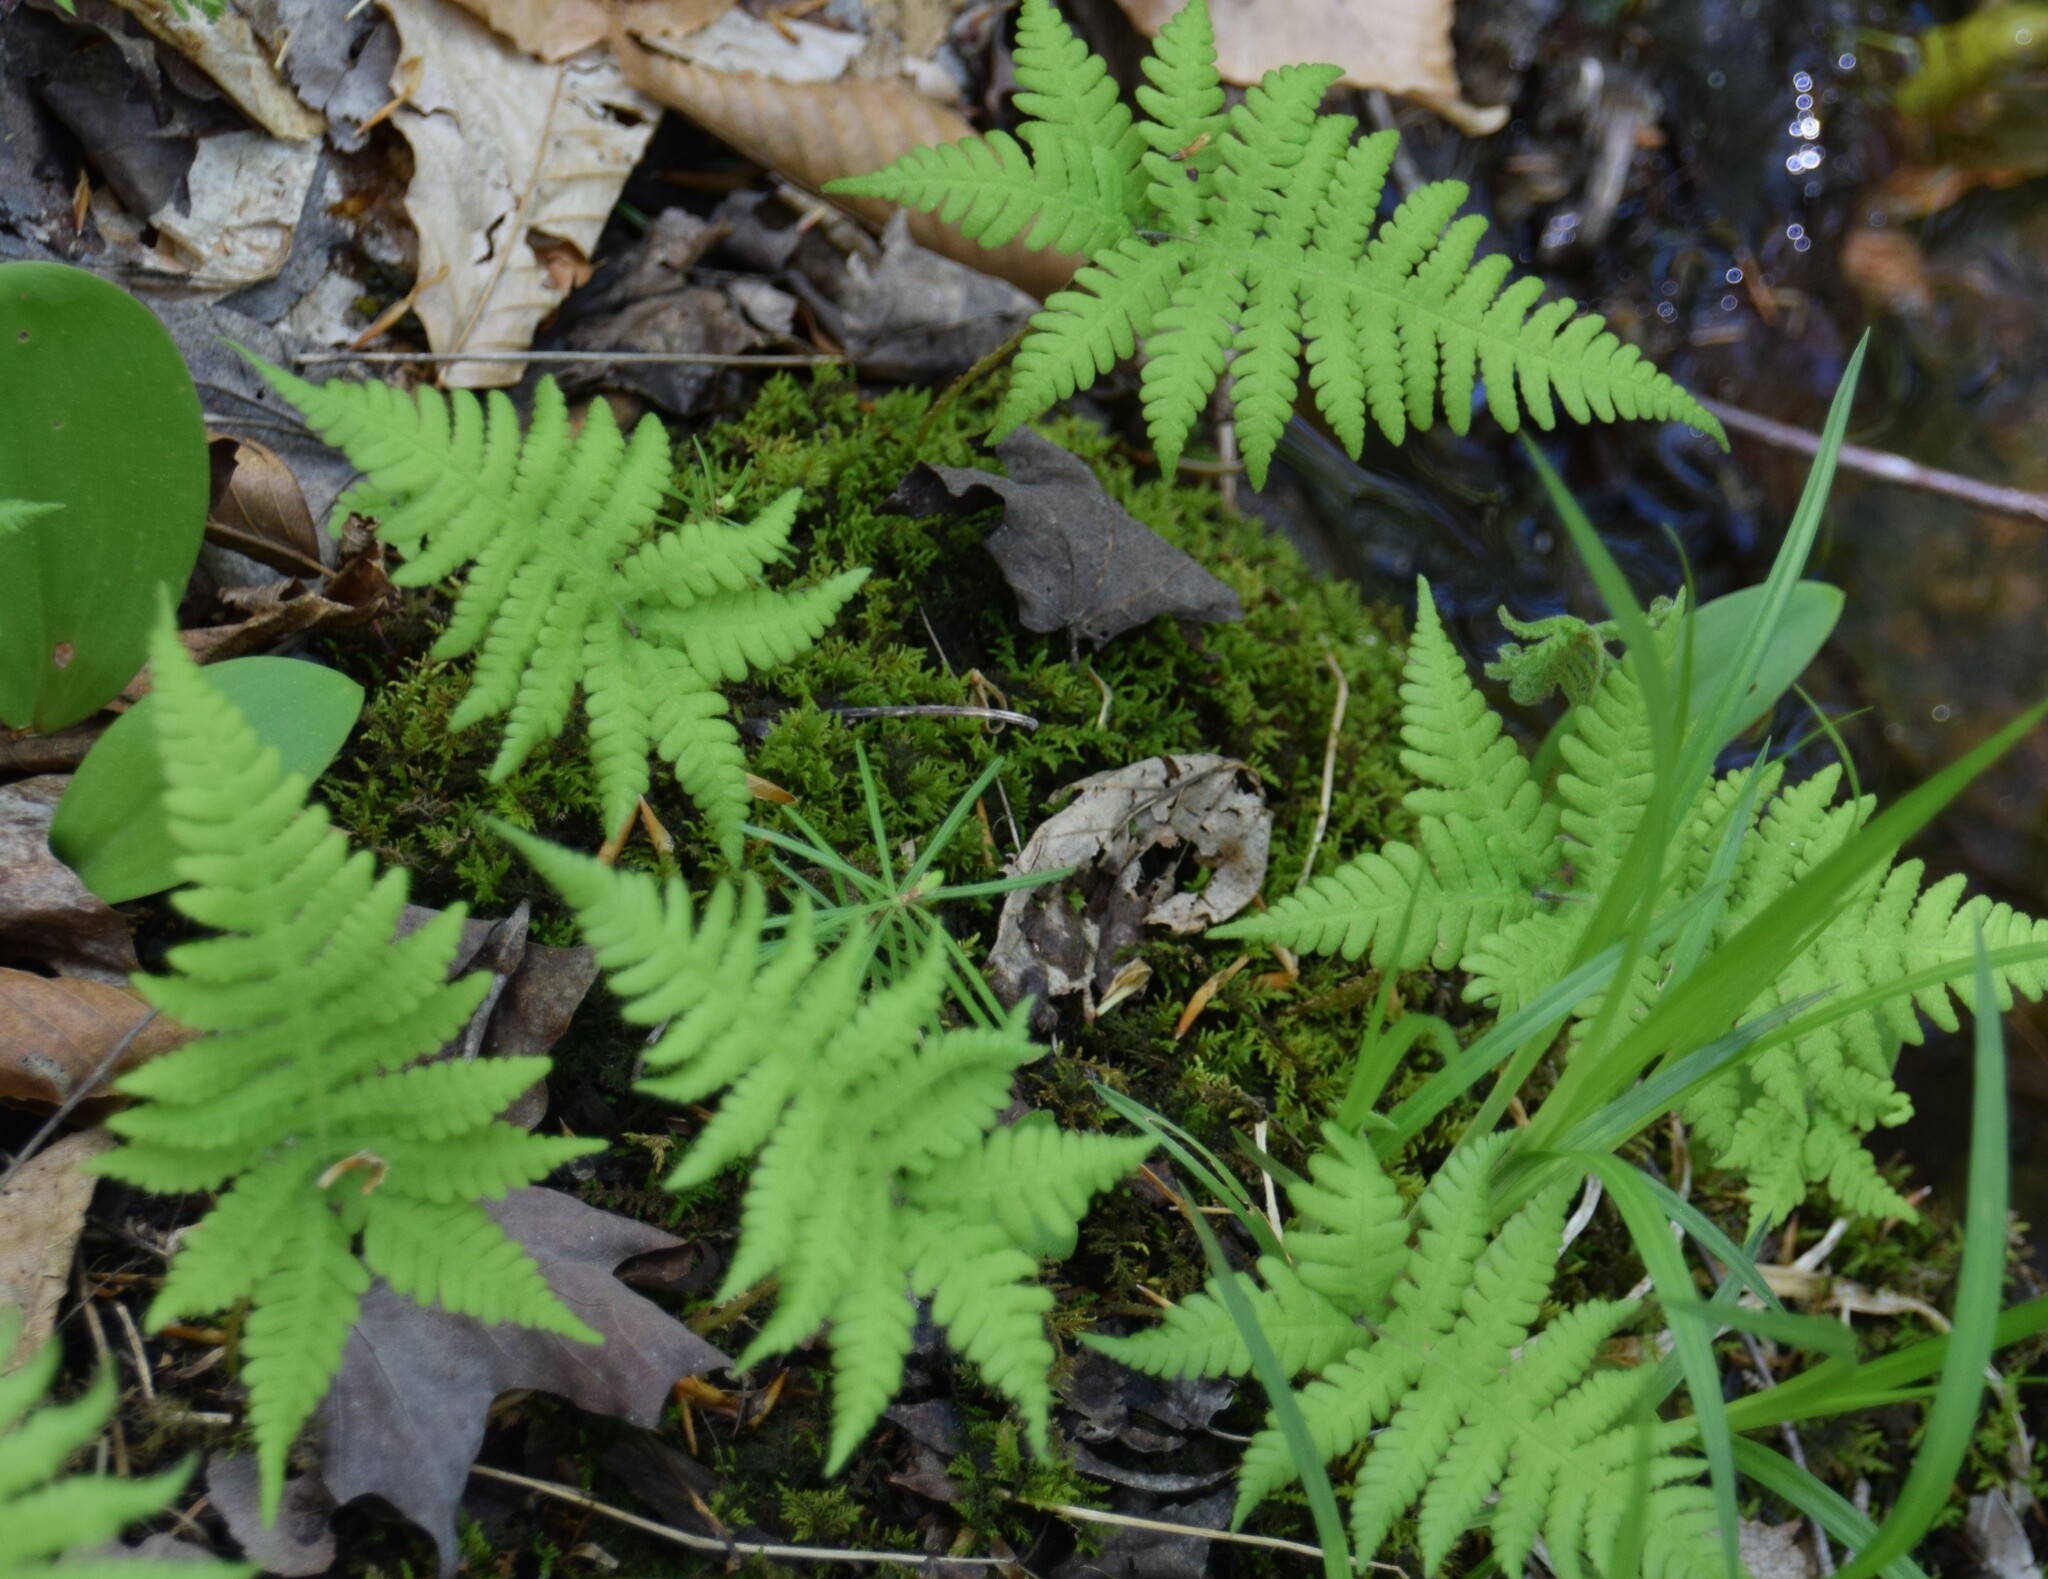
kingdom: Plantae
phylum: Tracheophyta
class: Polypodiopsida
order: Polypodiales
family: Thelypteridaceae
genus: Phegopteris
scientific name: Phegopteris connectilis
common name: Beech fern
